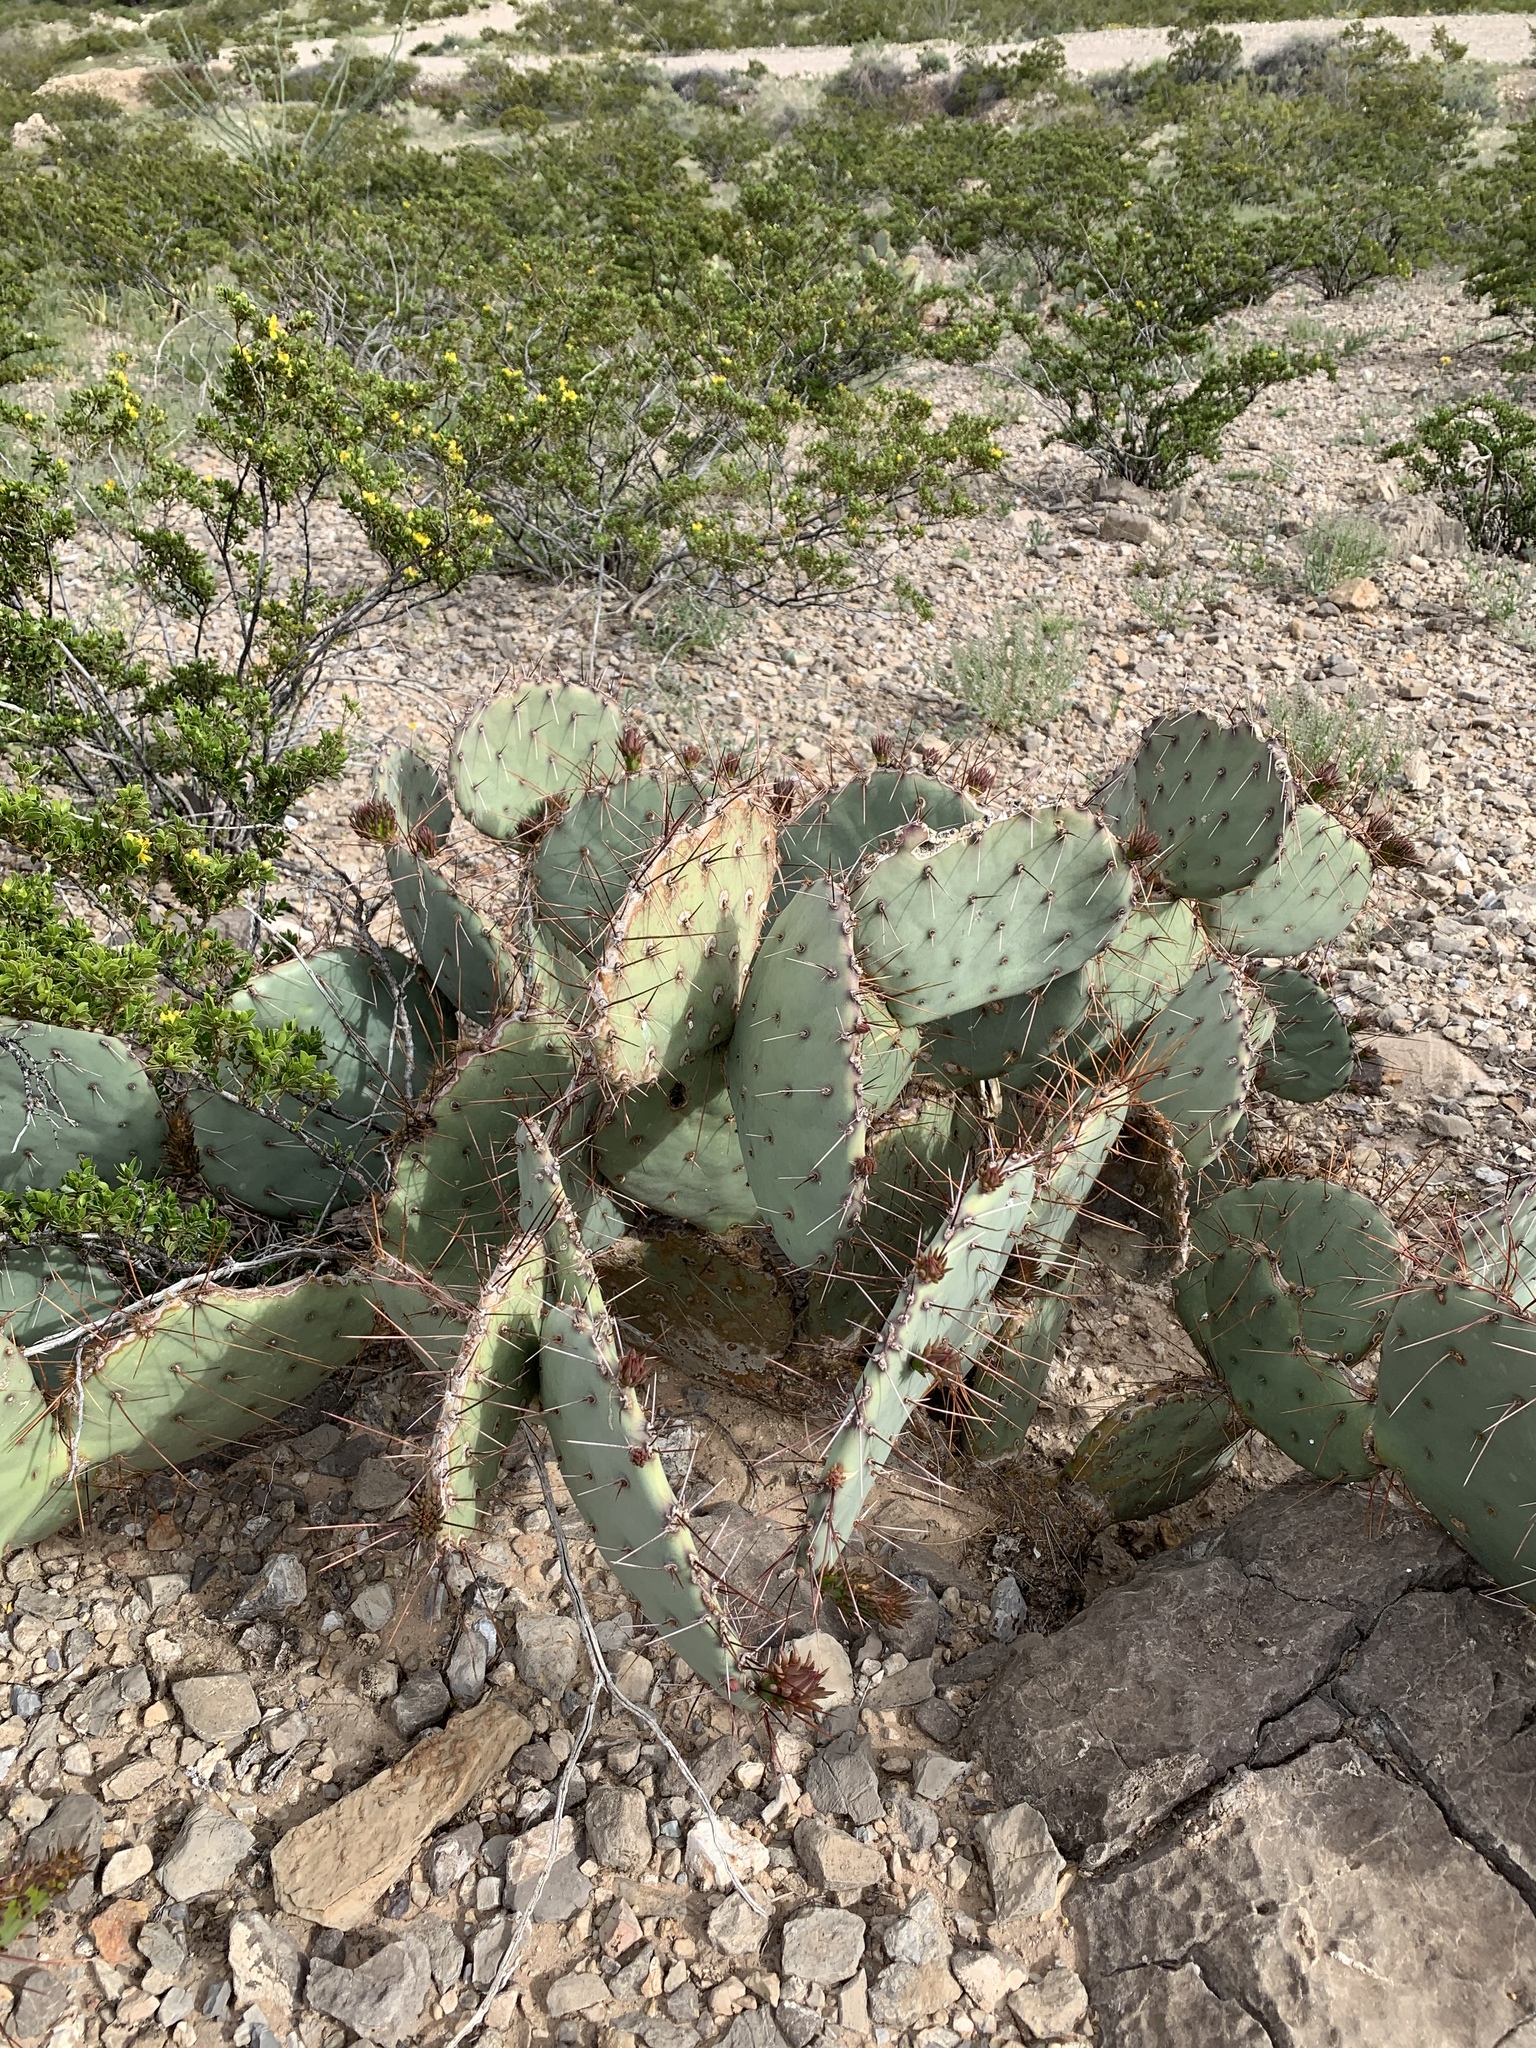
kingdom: Plantae
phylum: Tracheophyta
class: Magnoliopsida
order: Caryophyllales
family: Cactaceae
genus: Opuntia
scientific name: Opuntia phaeacantha
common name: New mexico prickly-pear
